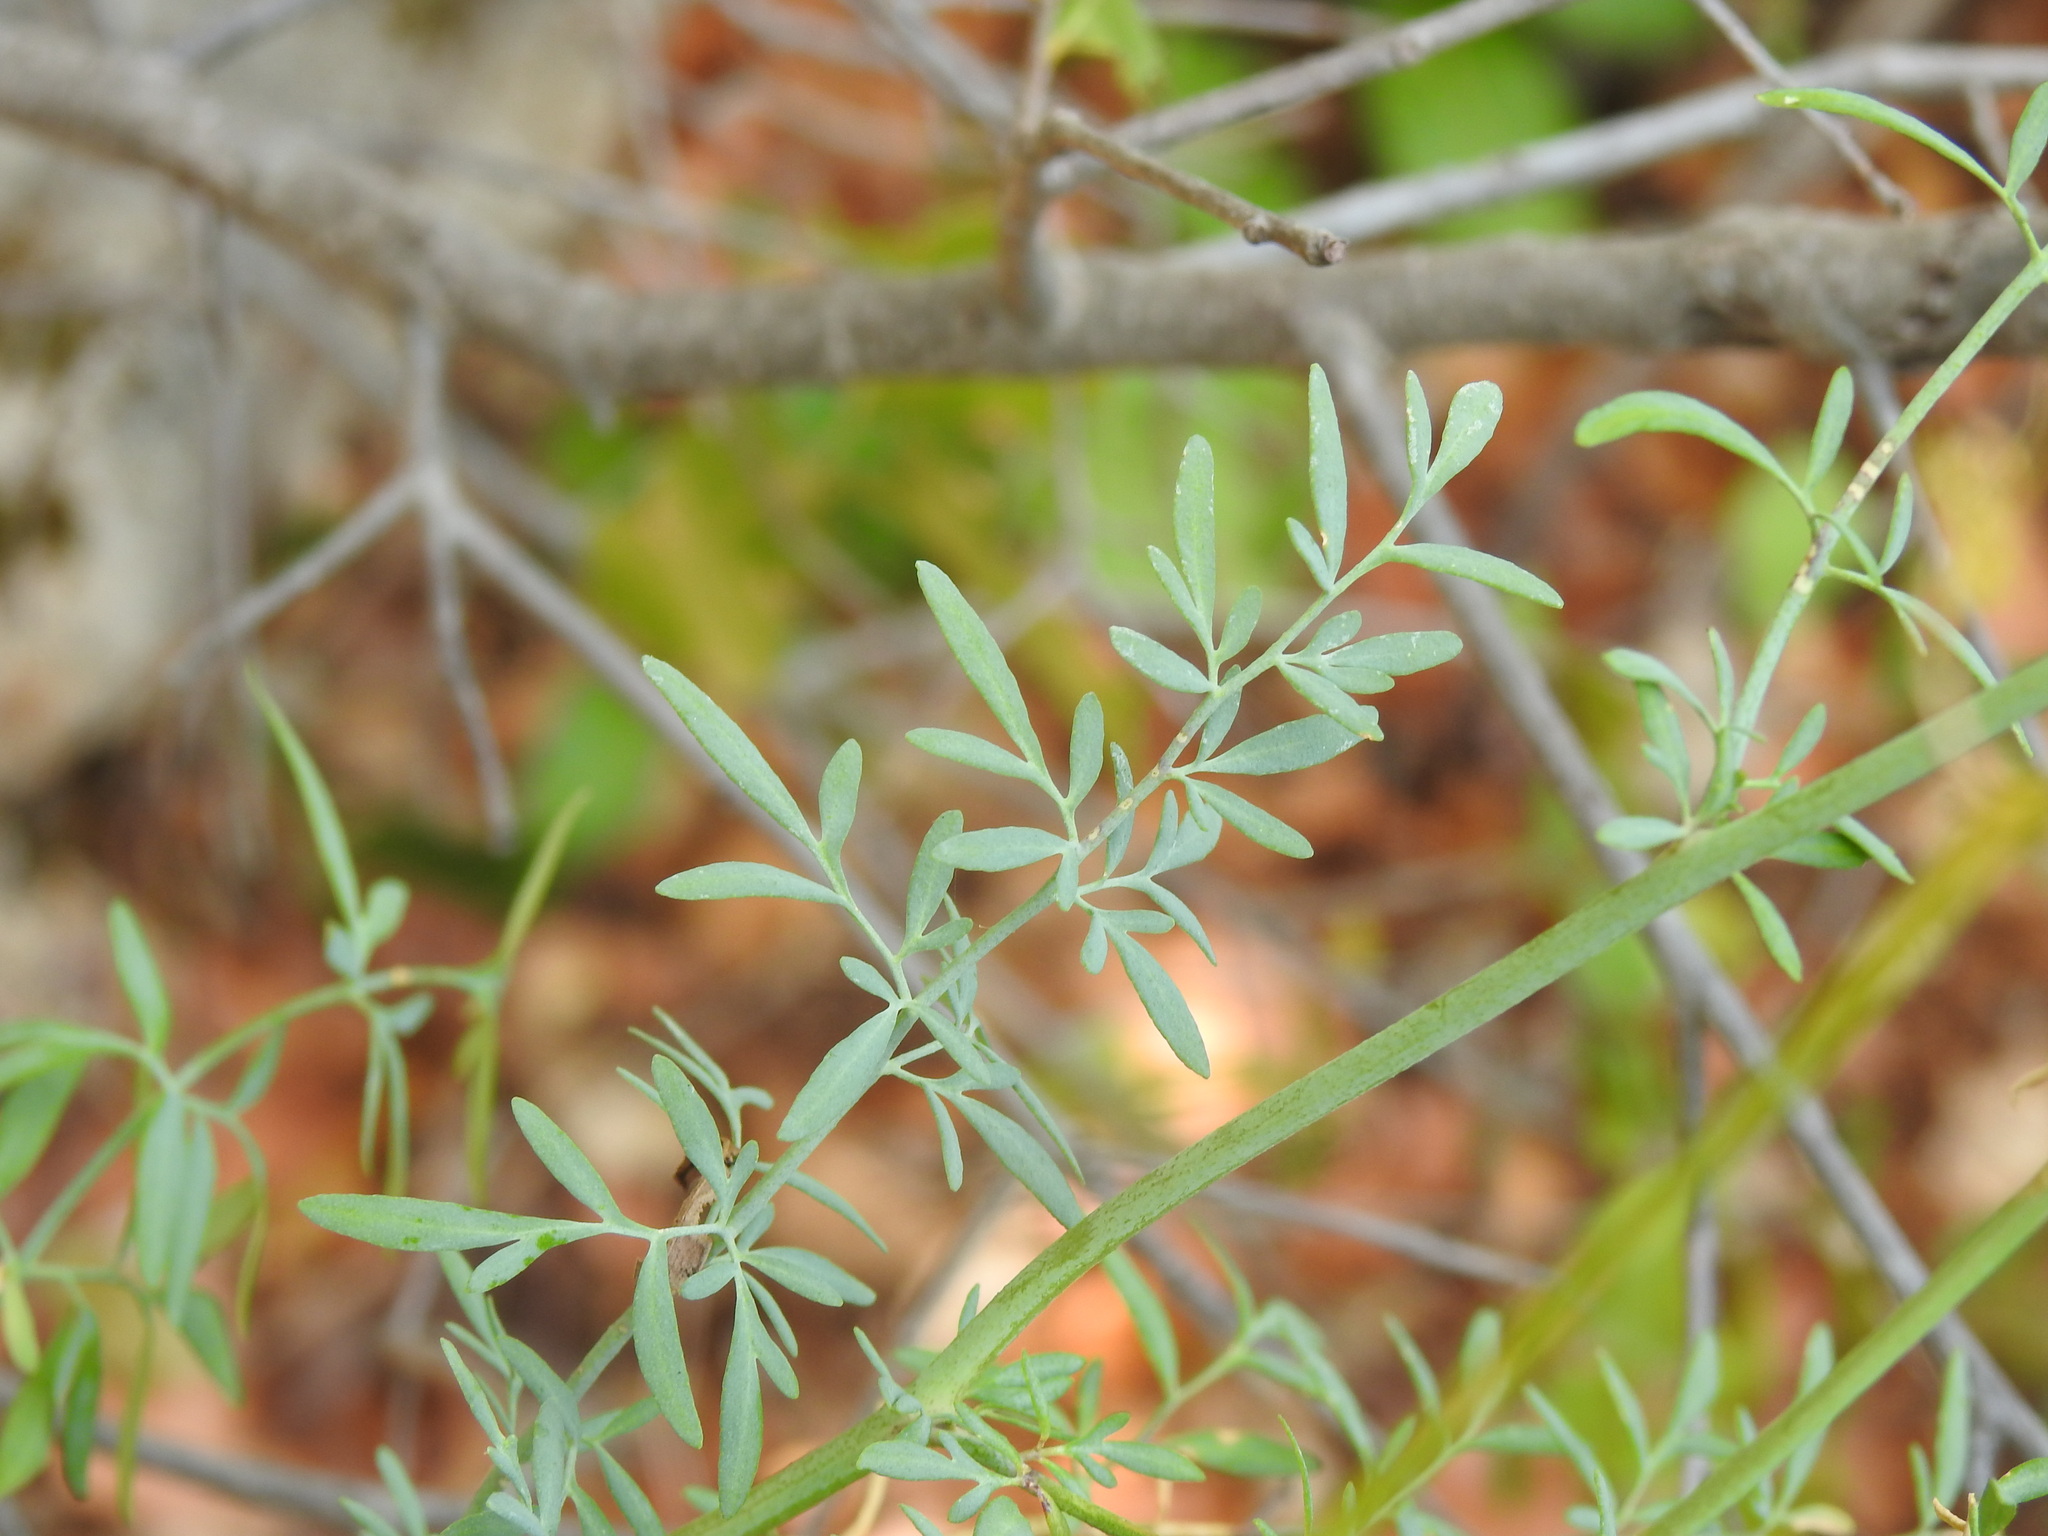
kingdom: Plantae
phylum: Tracheophyta
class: Magnoliopsida
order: Sapindales
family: Rutaceae
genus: Ruta
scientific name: Ruta angustifolia
